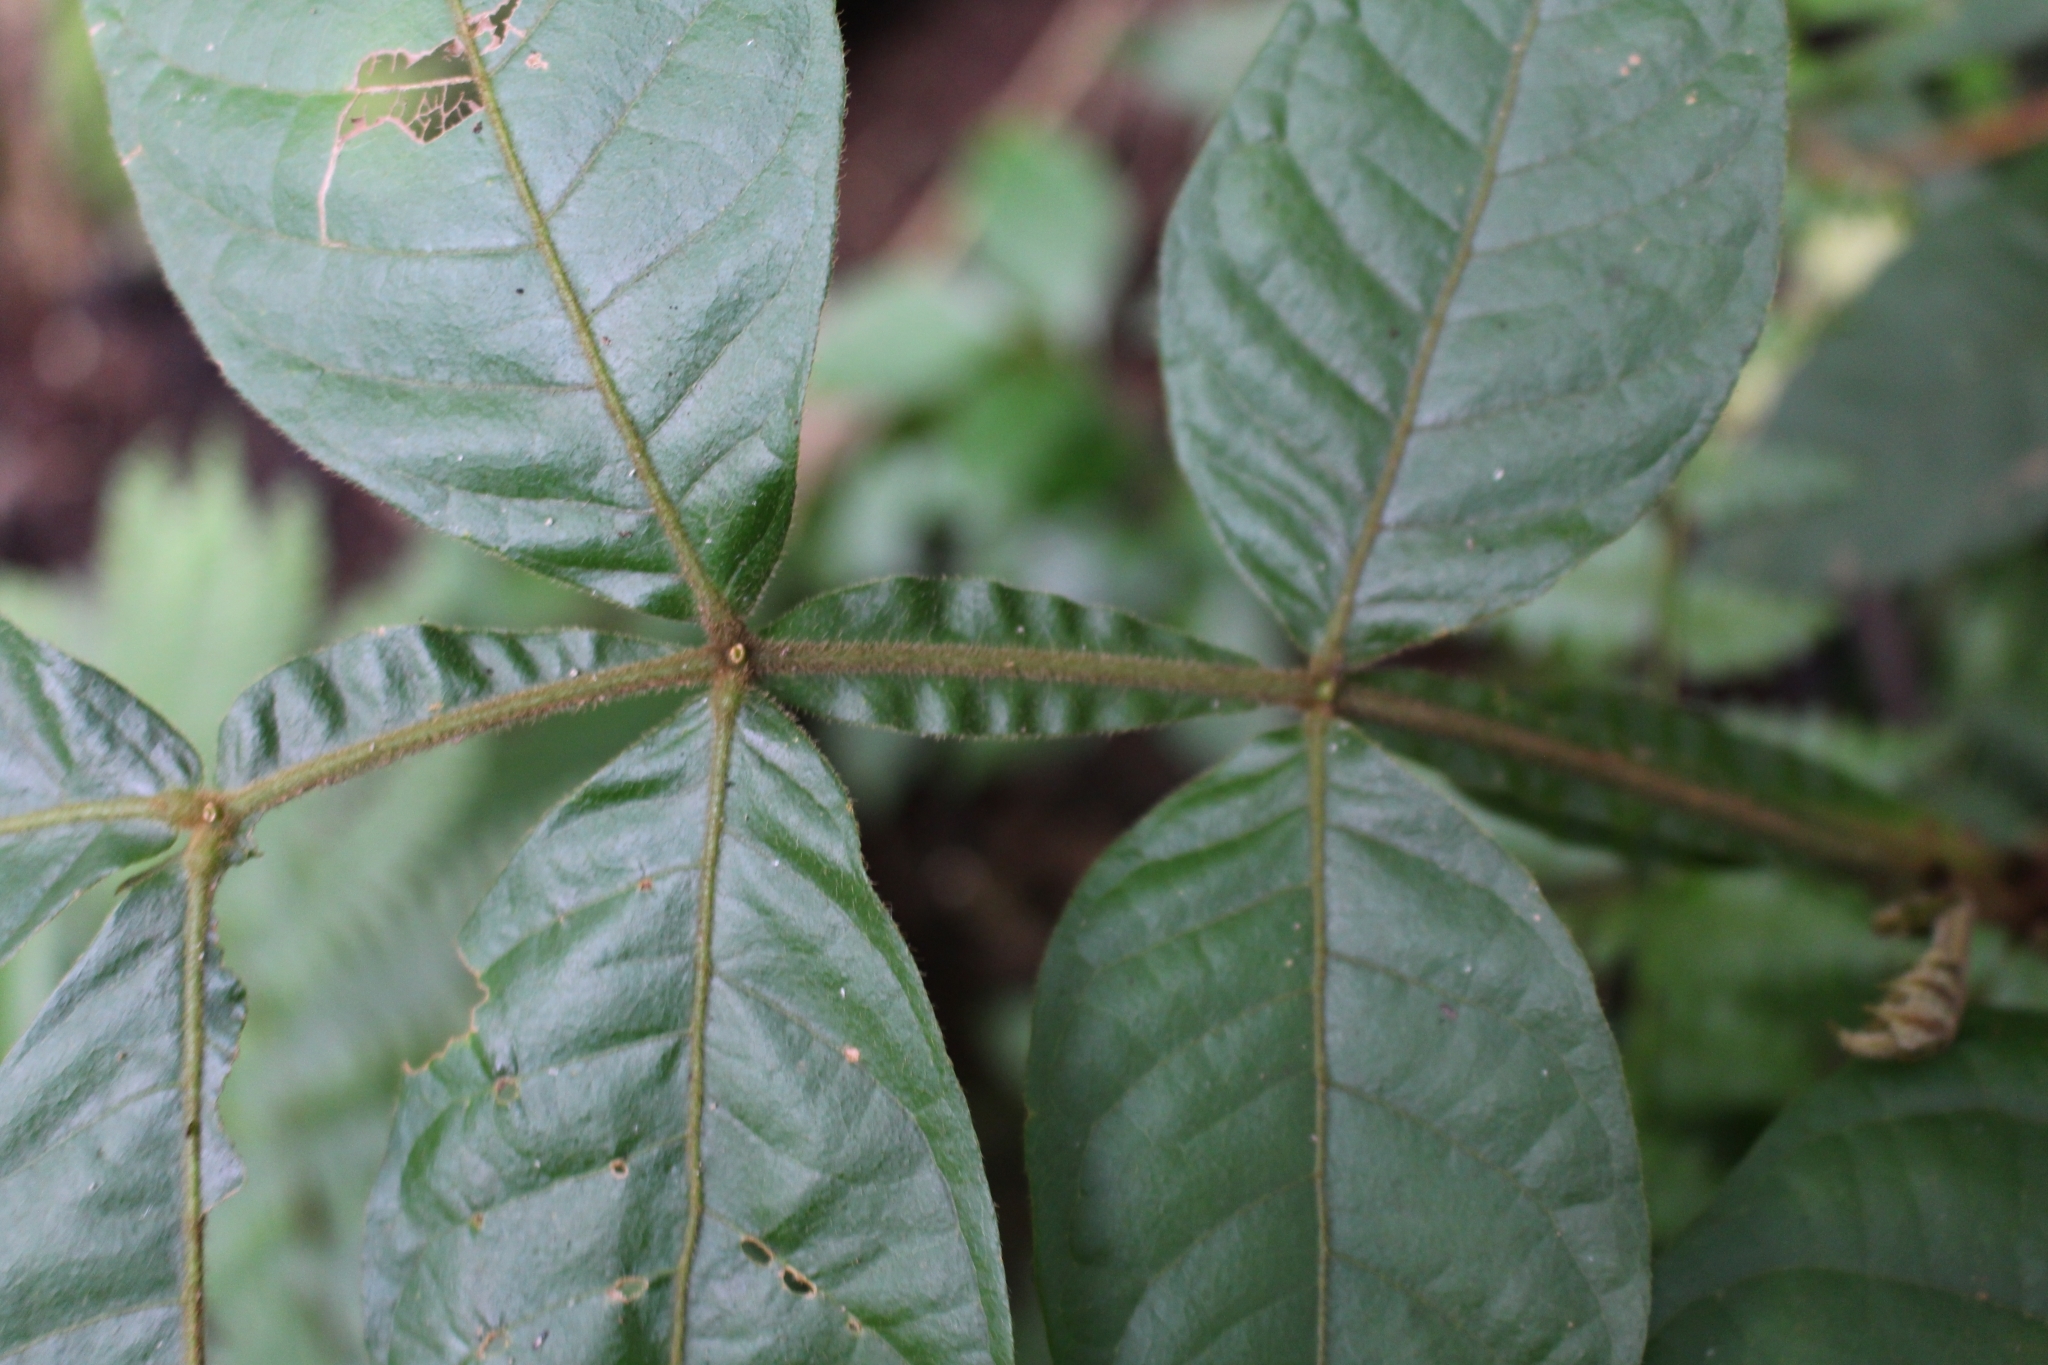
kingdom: Plantae
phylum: Tracheophyta
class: Magnoliopsida
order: Fabales
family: Fabaceae
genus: Inga
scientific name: Inga oerstediana
